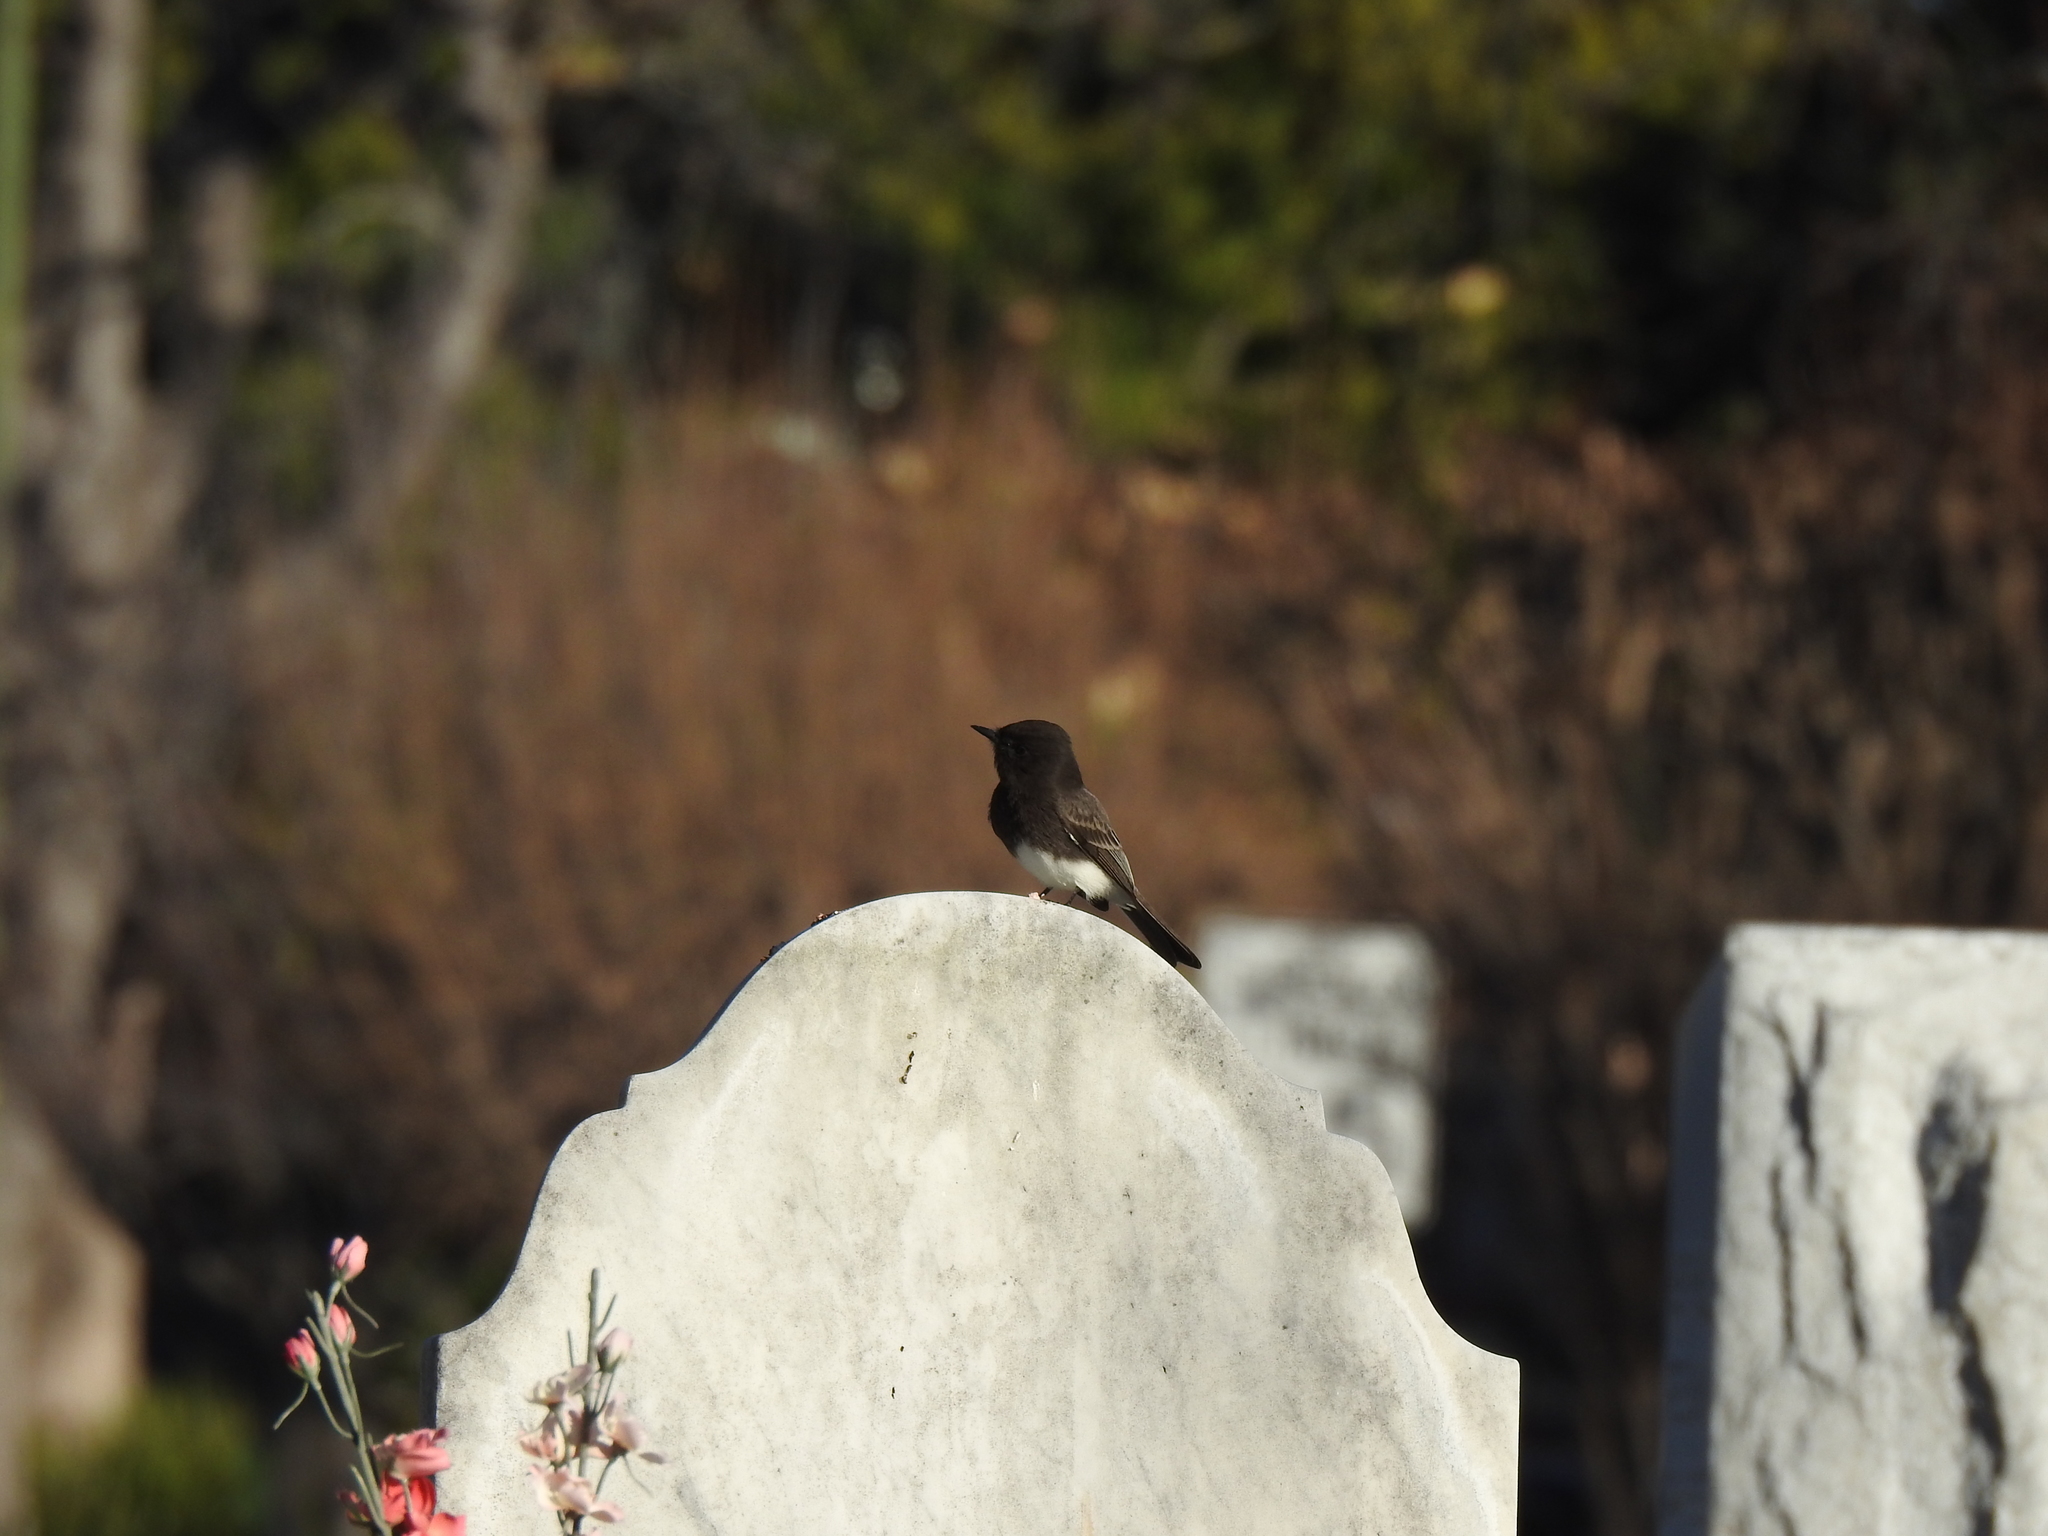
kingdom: Animalia
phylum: Chordata
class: Aves
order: Passeriformes
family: Tyrannidae
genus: Sayornis
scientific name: Sayornis nigricans
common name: Black phoebe
